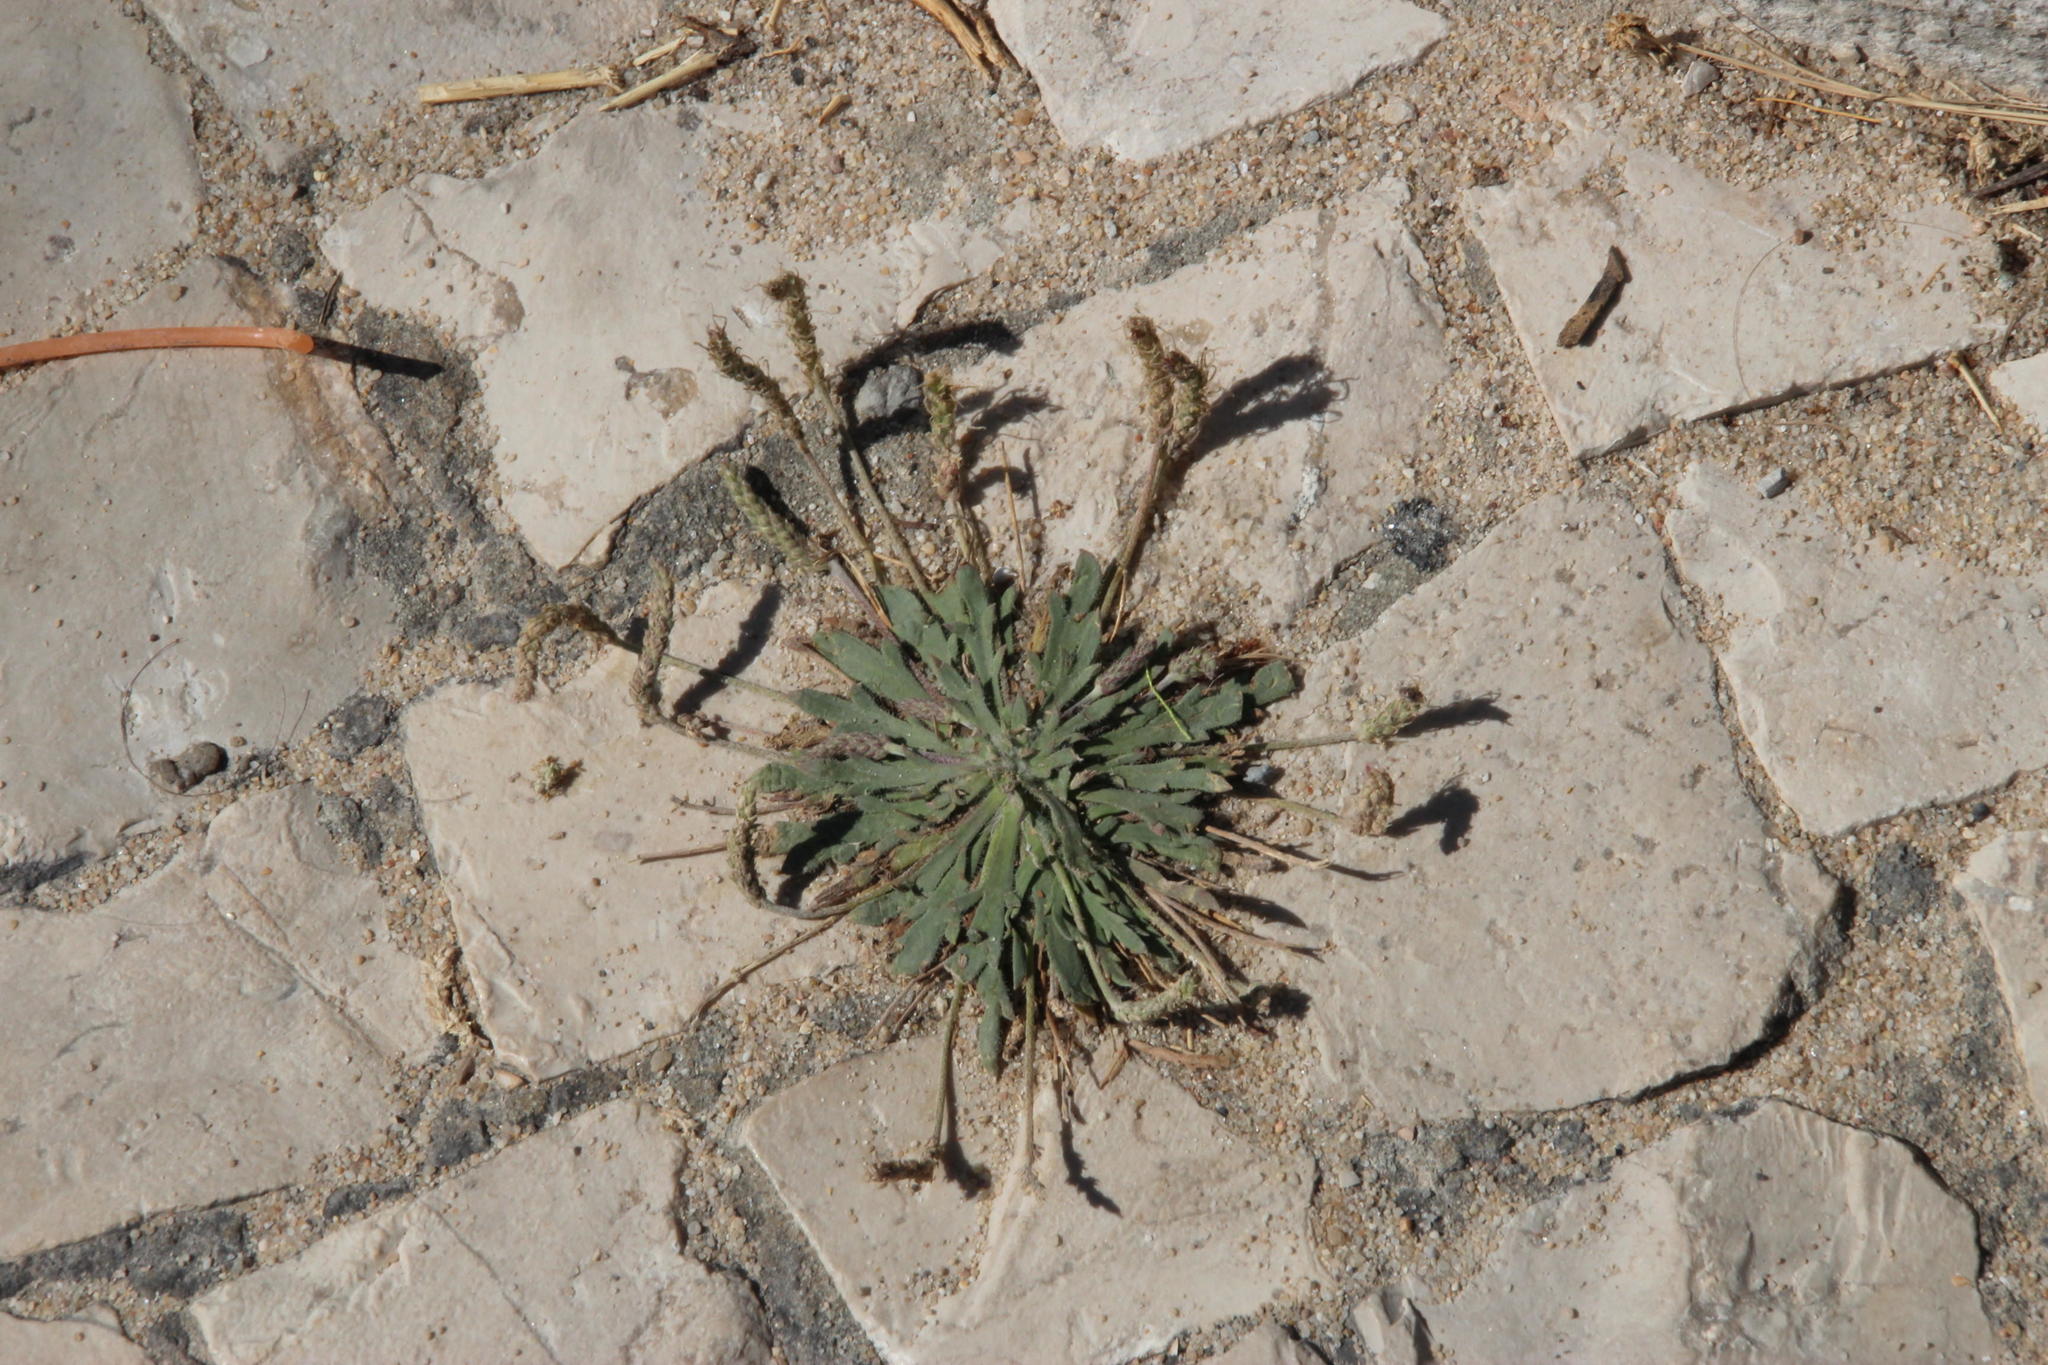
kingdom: Plantae
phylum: Tracheophyta
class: Magnoliopsida
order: Lamiales
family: Plantaginaceae
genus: Plantago
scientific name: Plantago coronopus
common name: Buck's-horn plantain
